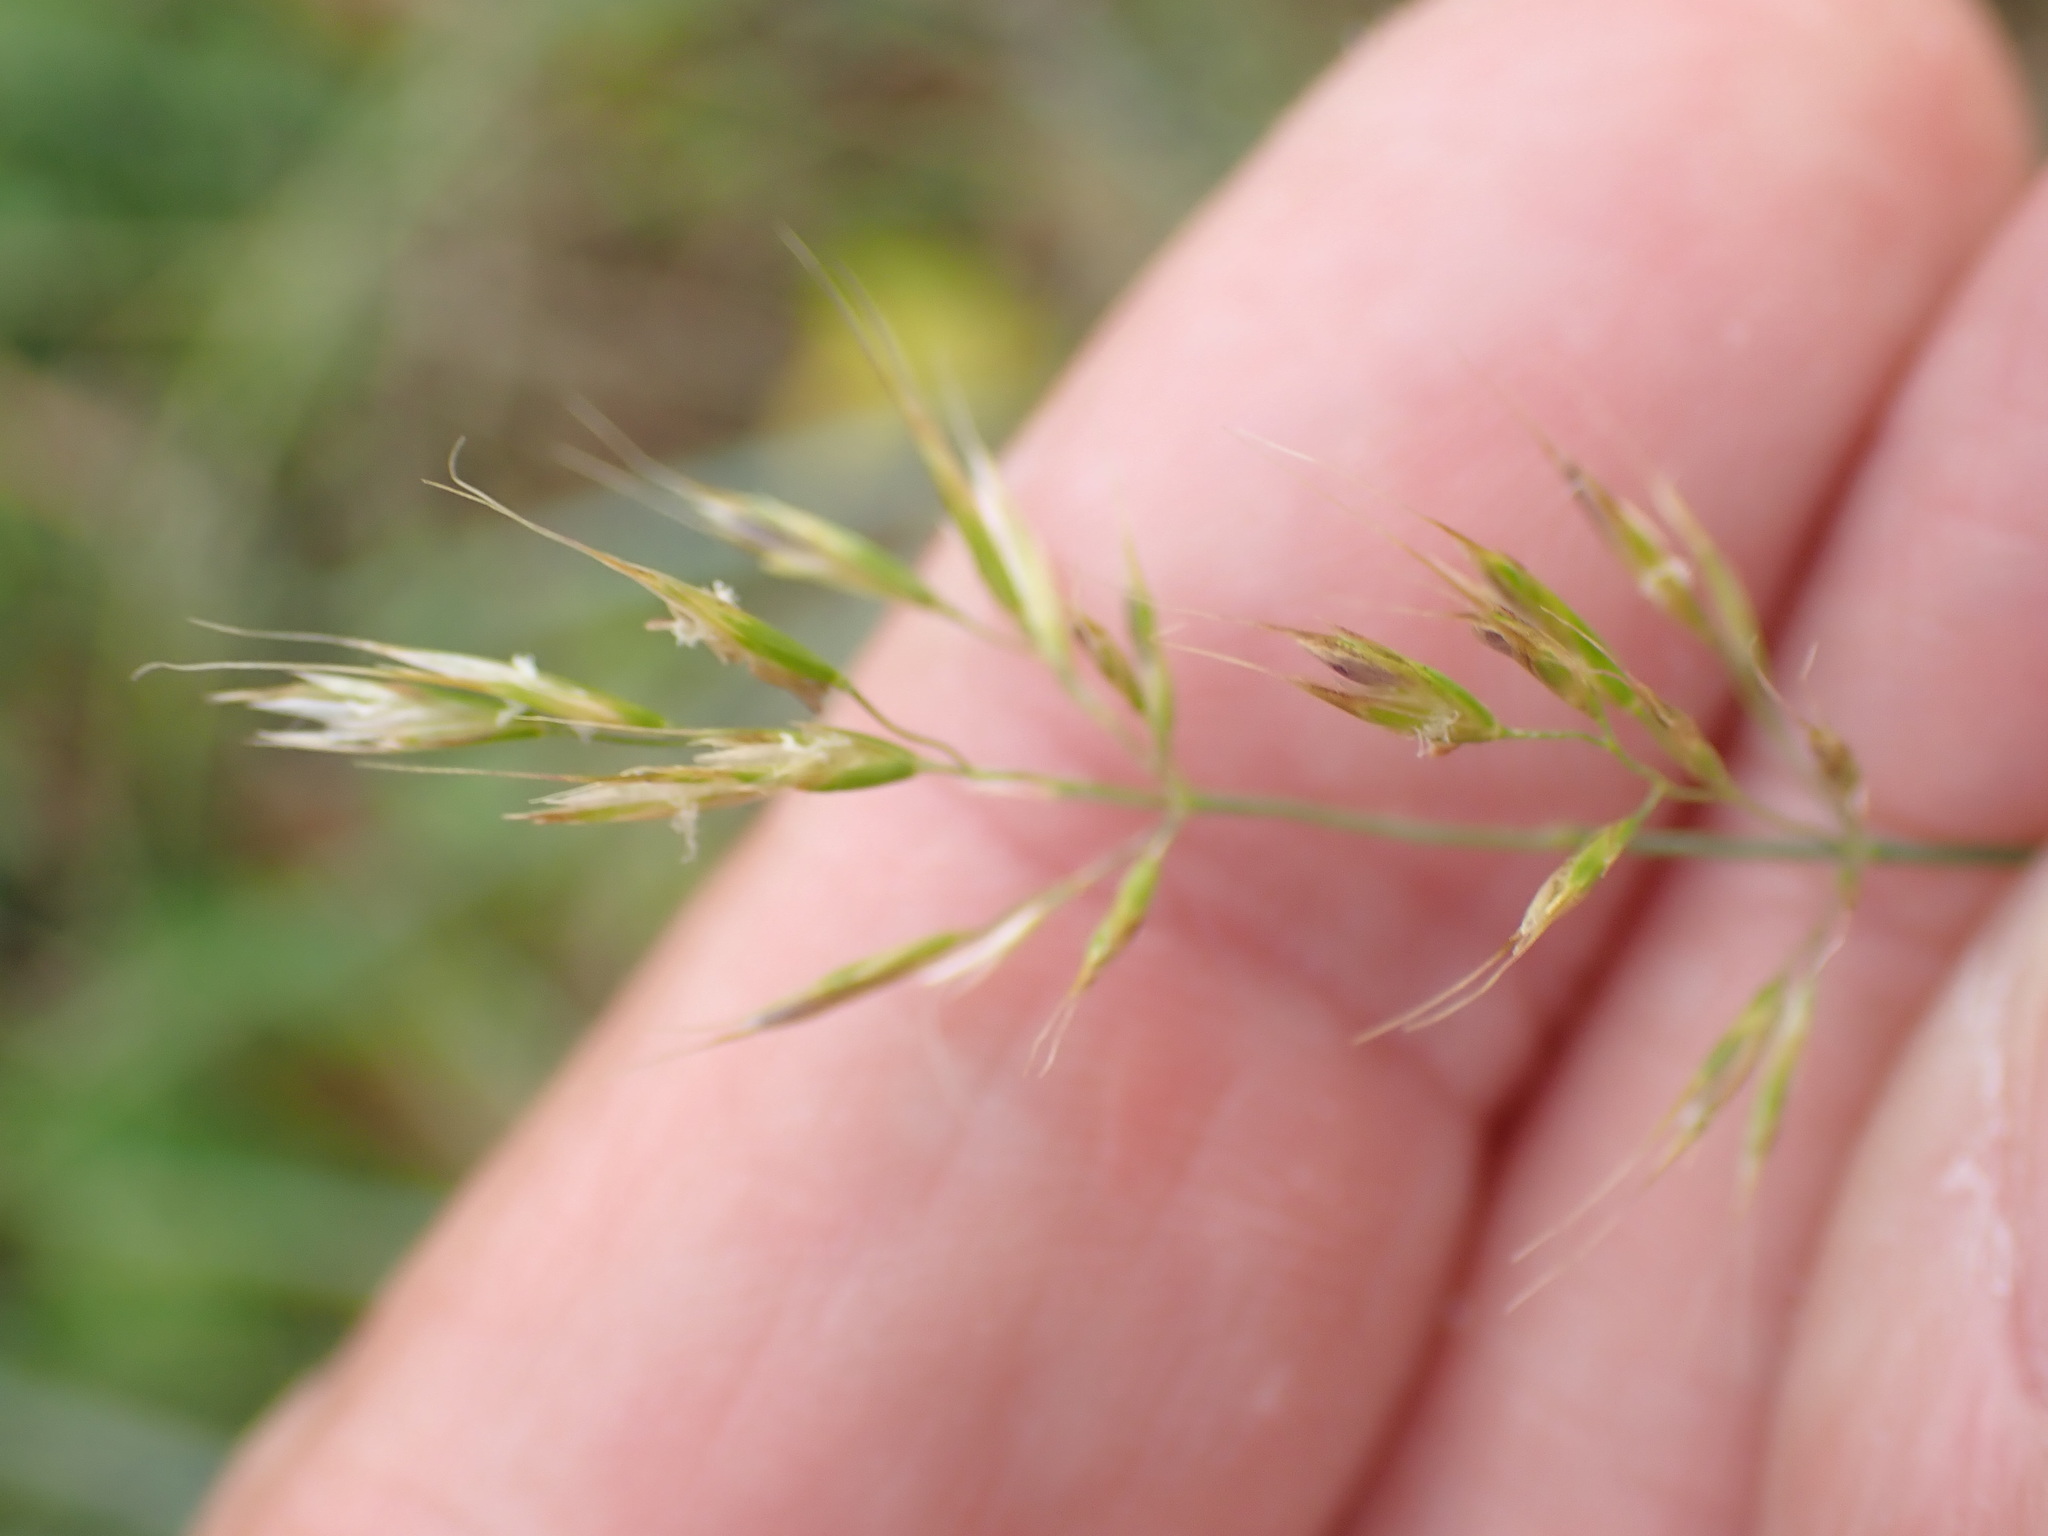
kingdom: Plantae
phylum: Tracheophyta
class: Liliopsida
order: Poales
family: Poaceae
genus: Trisetum
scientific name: Trisetum flavescens
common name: Yellow oat-grass
